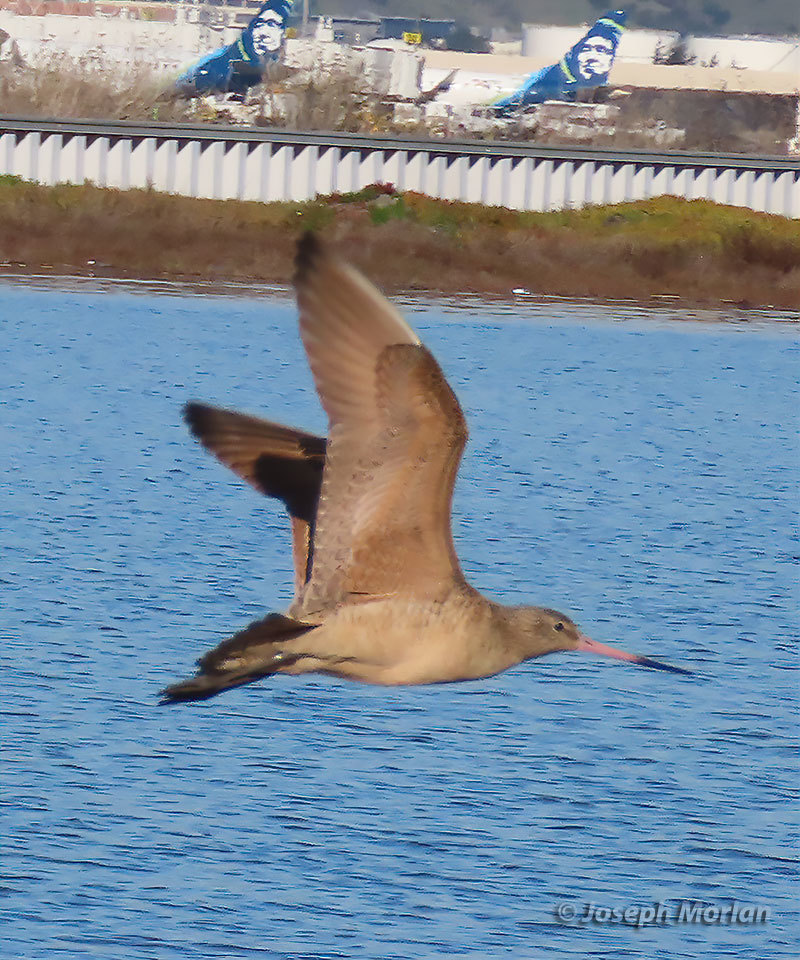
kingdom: Animalia
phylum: Chordata
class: Aves
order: Charadriiformes
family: Scolopacidae
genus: Limosa
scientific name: Limosa fedoa
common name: Marbled godwit
